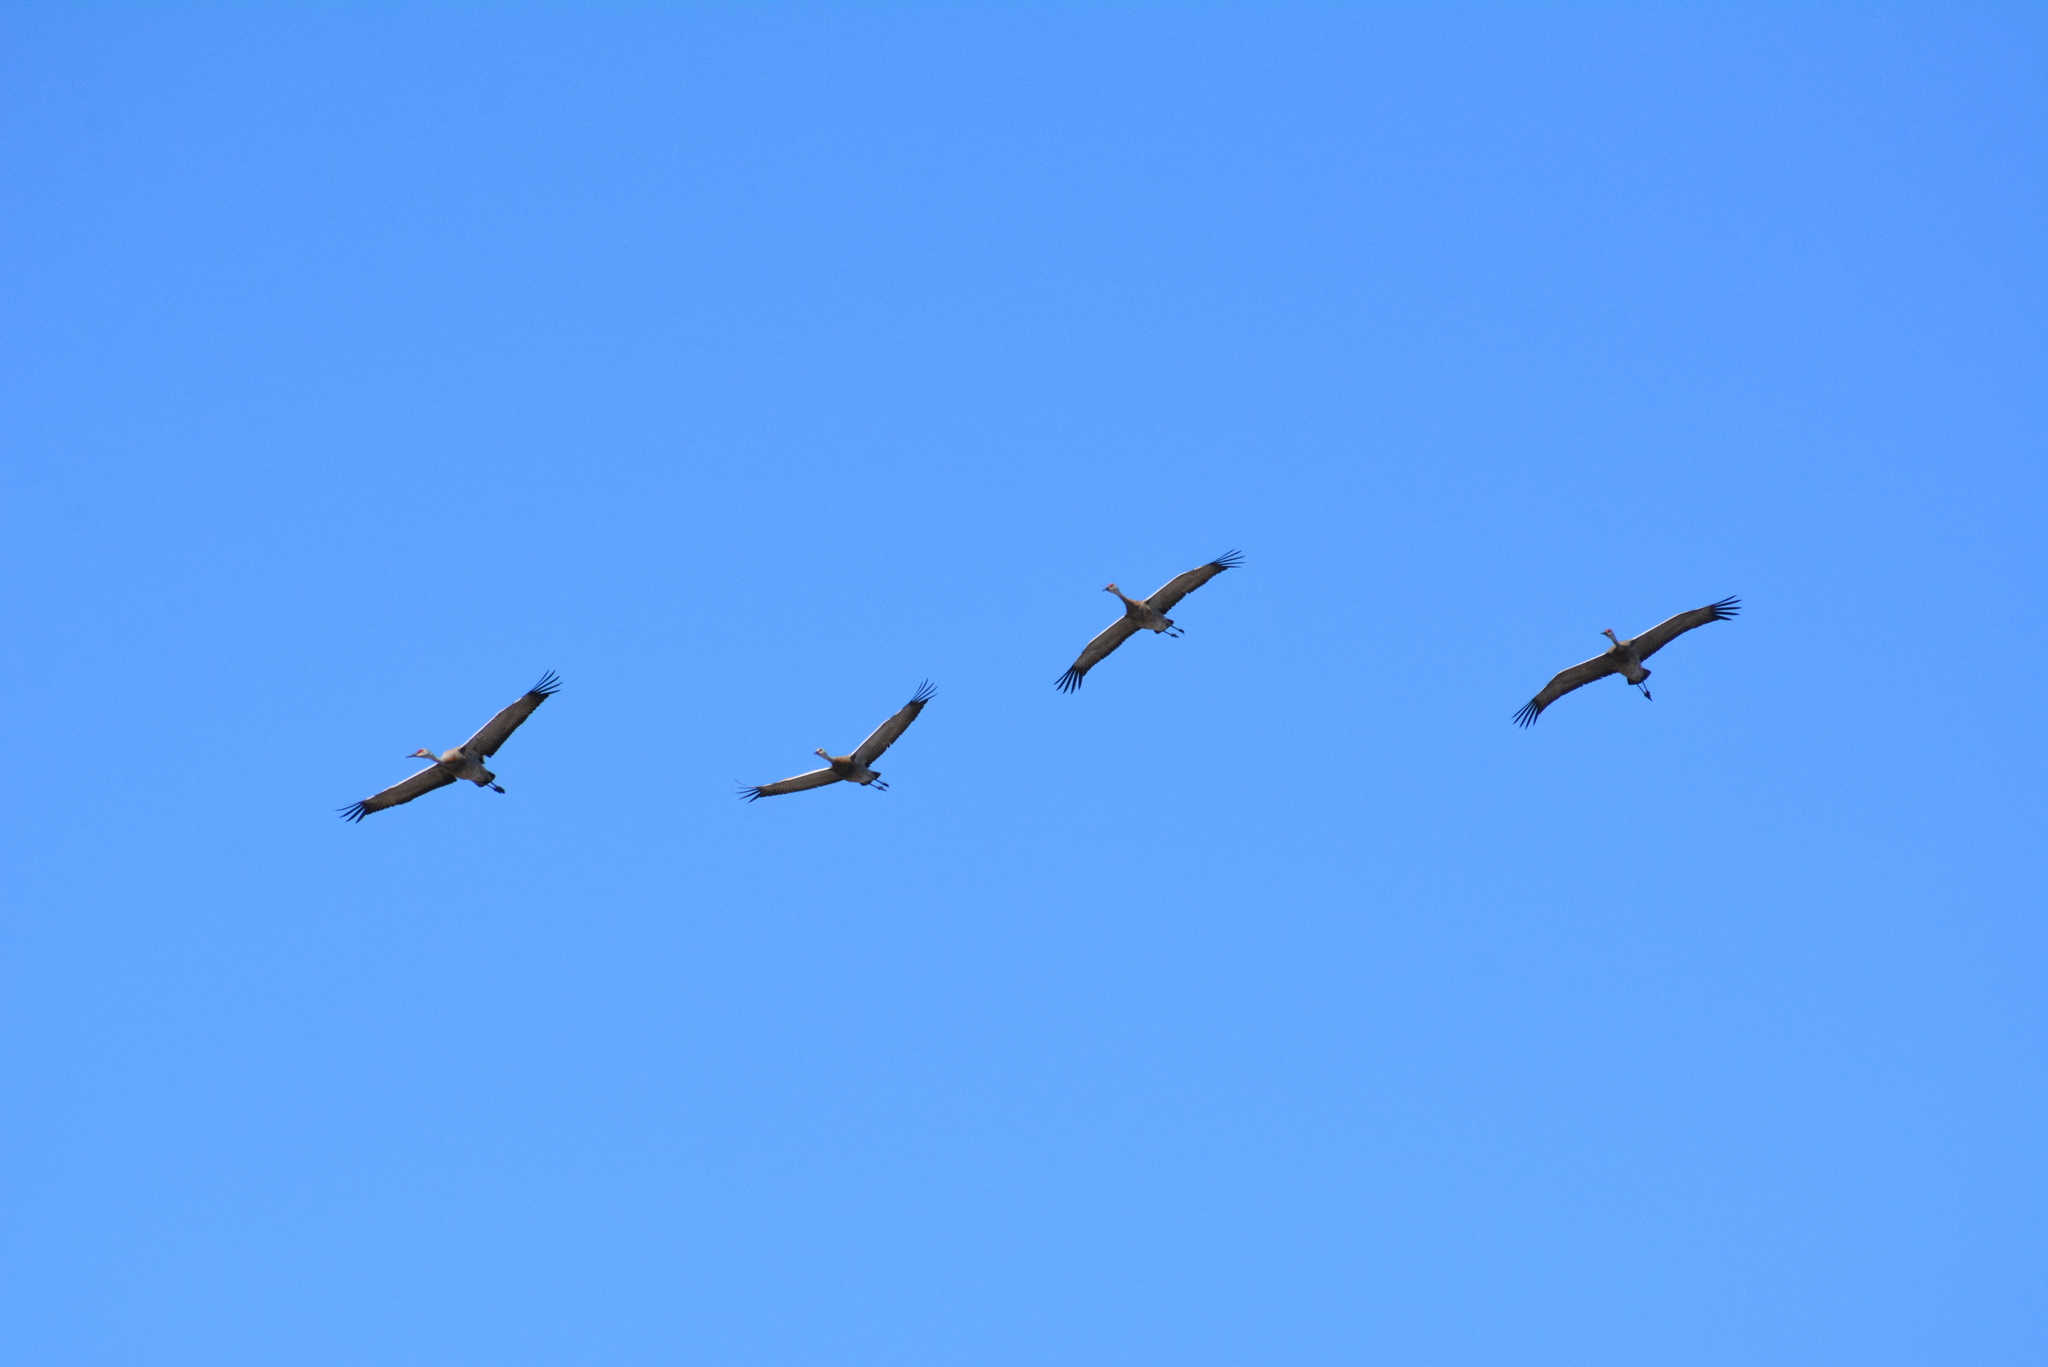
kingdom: Animalia
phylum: Chordata
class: Aves
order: Gruiformes
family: Gruidae
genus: Grus
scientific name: Grus canadensis
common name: Sandhill crane
